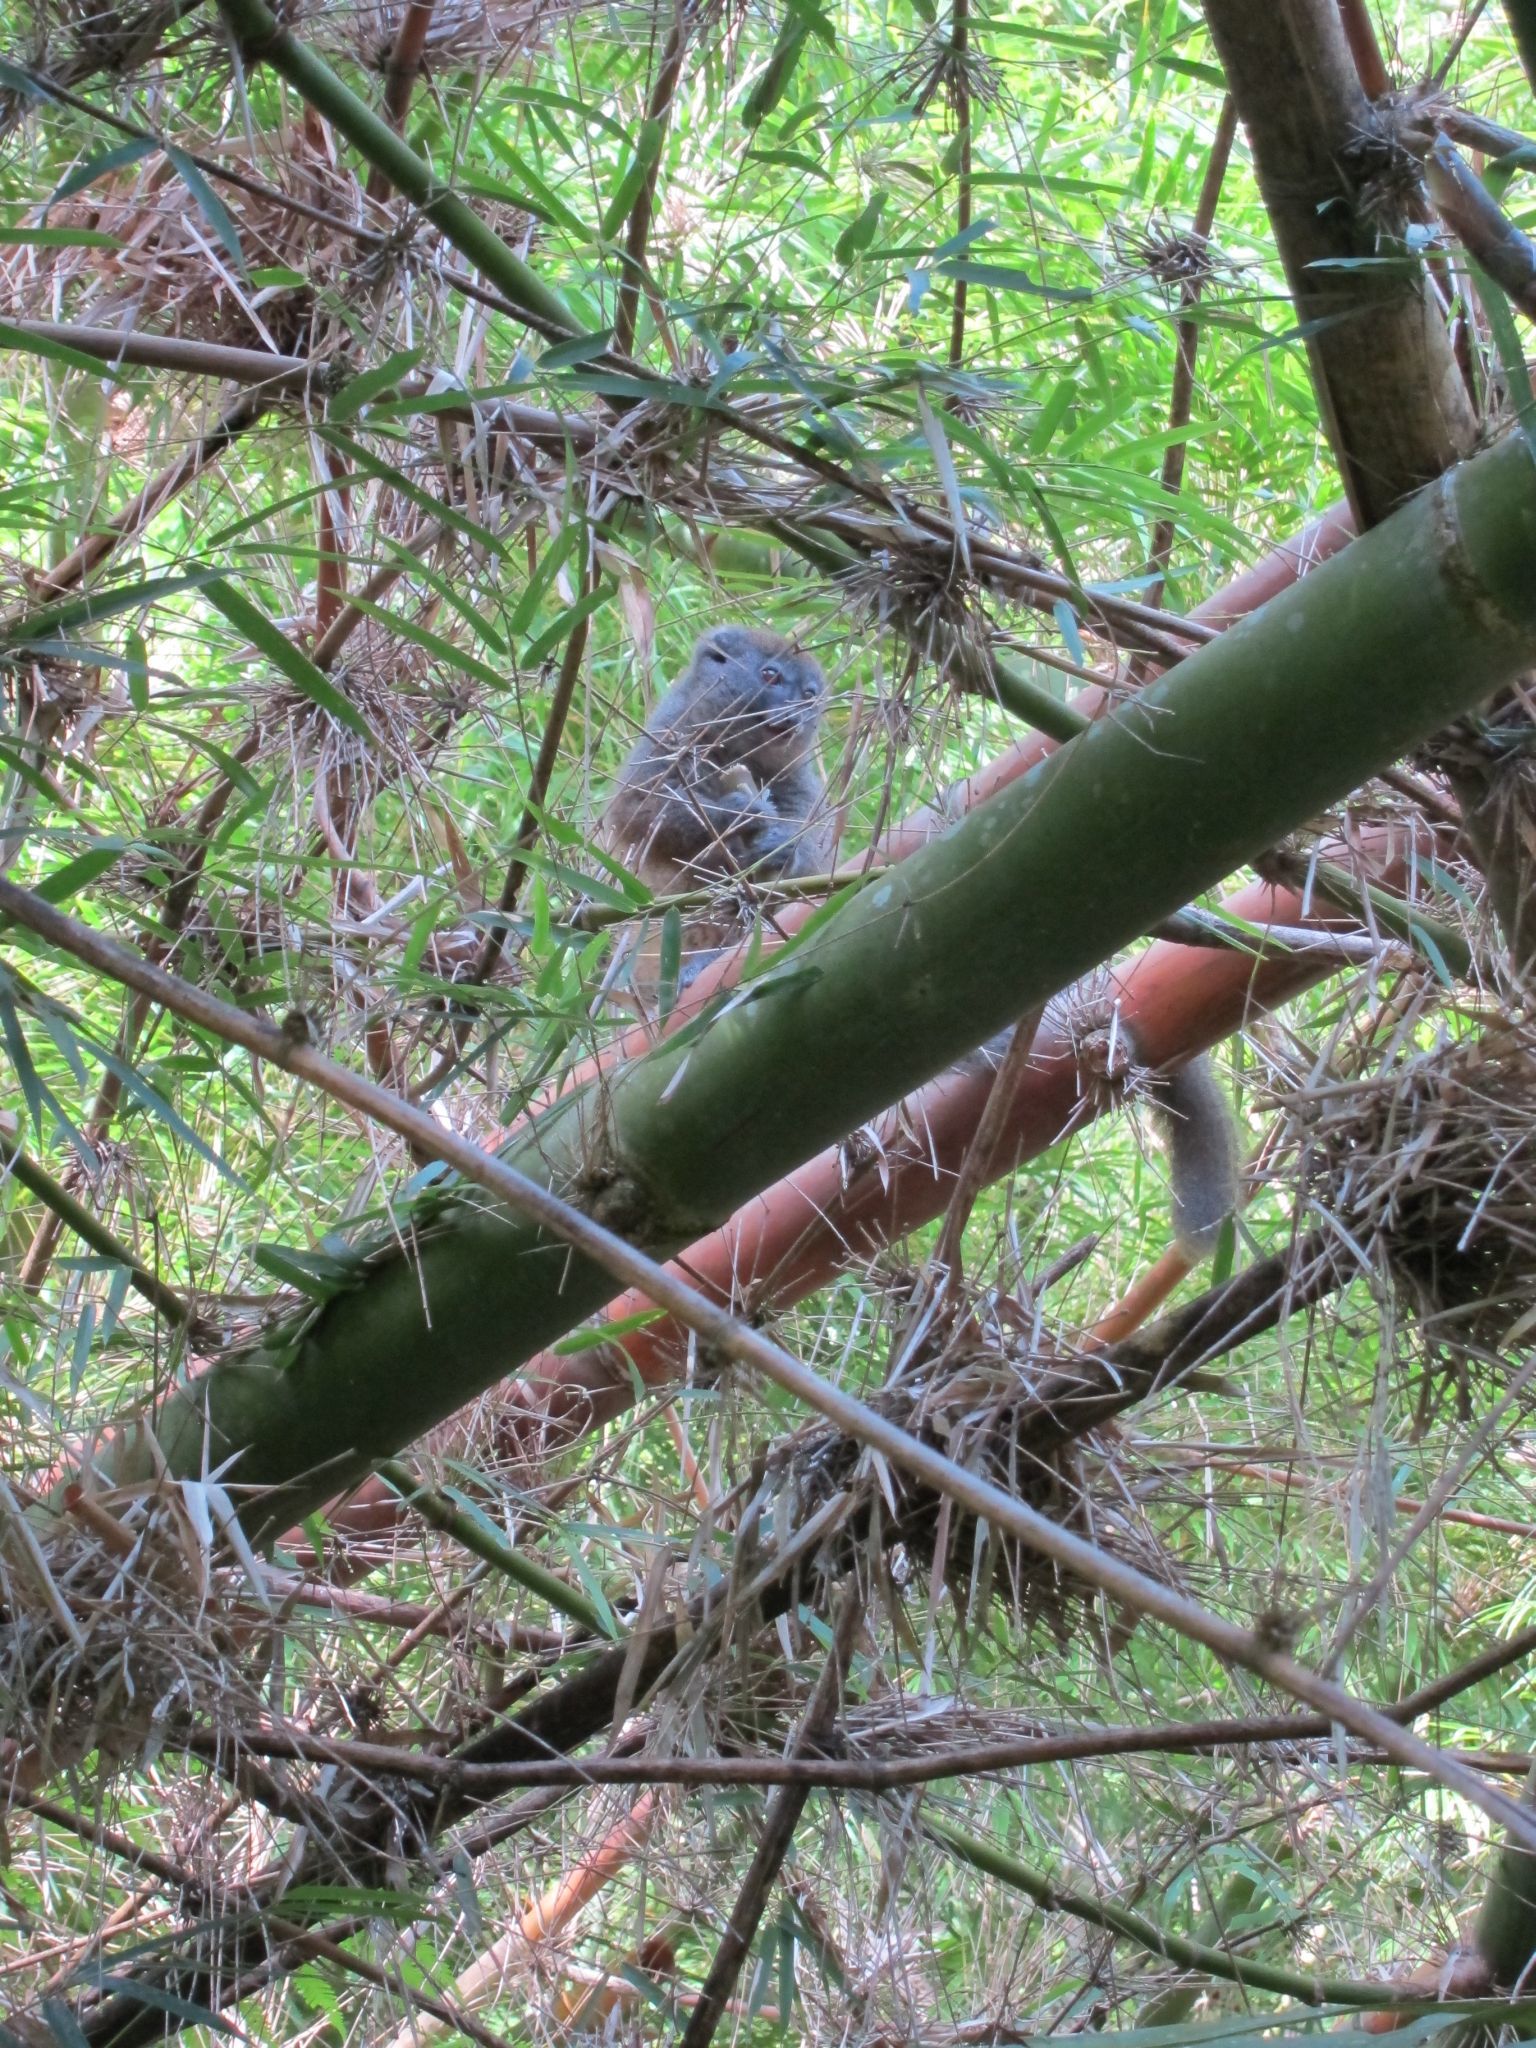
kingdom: Animalia
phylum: Chordata
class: Mammalia
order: Primates
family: Lemuridae
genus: Hapalemur
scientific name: Hapalemur occidentalis
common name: Sambirano bamboo lemur
